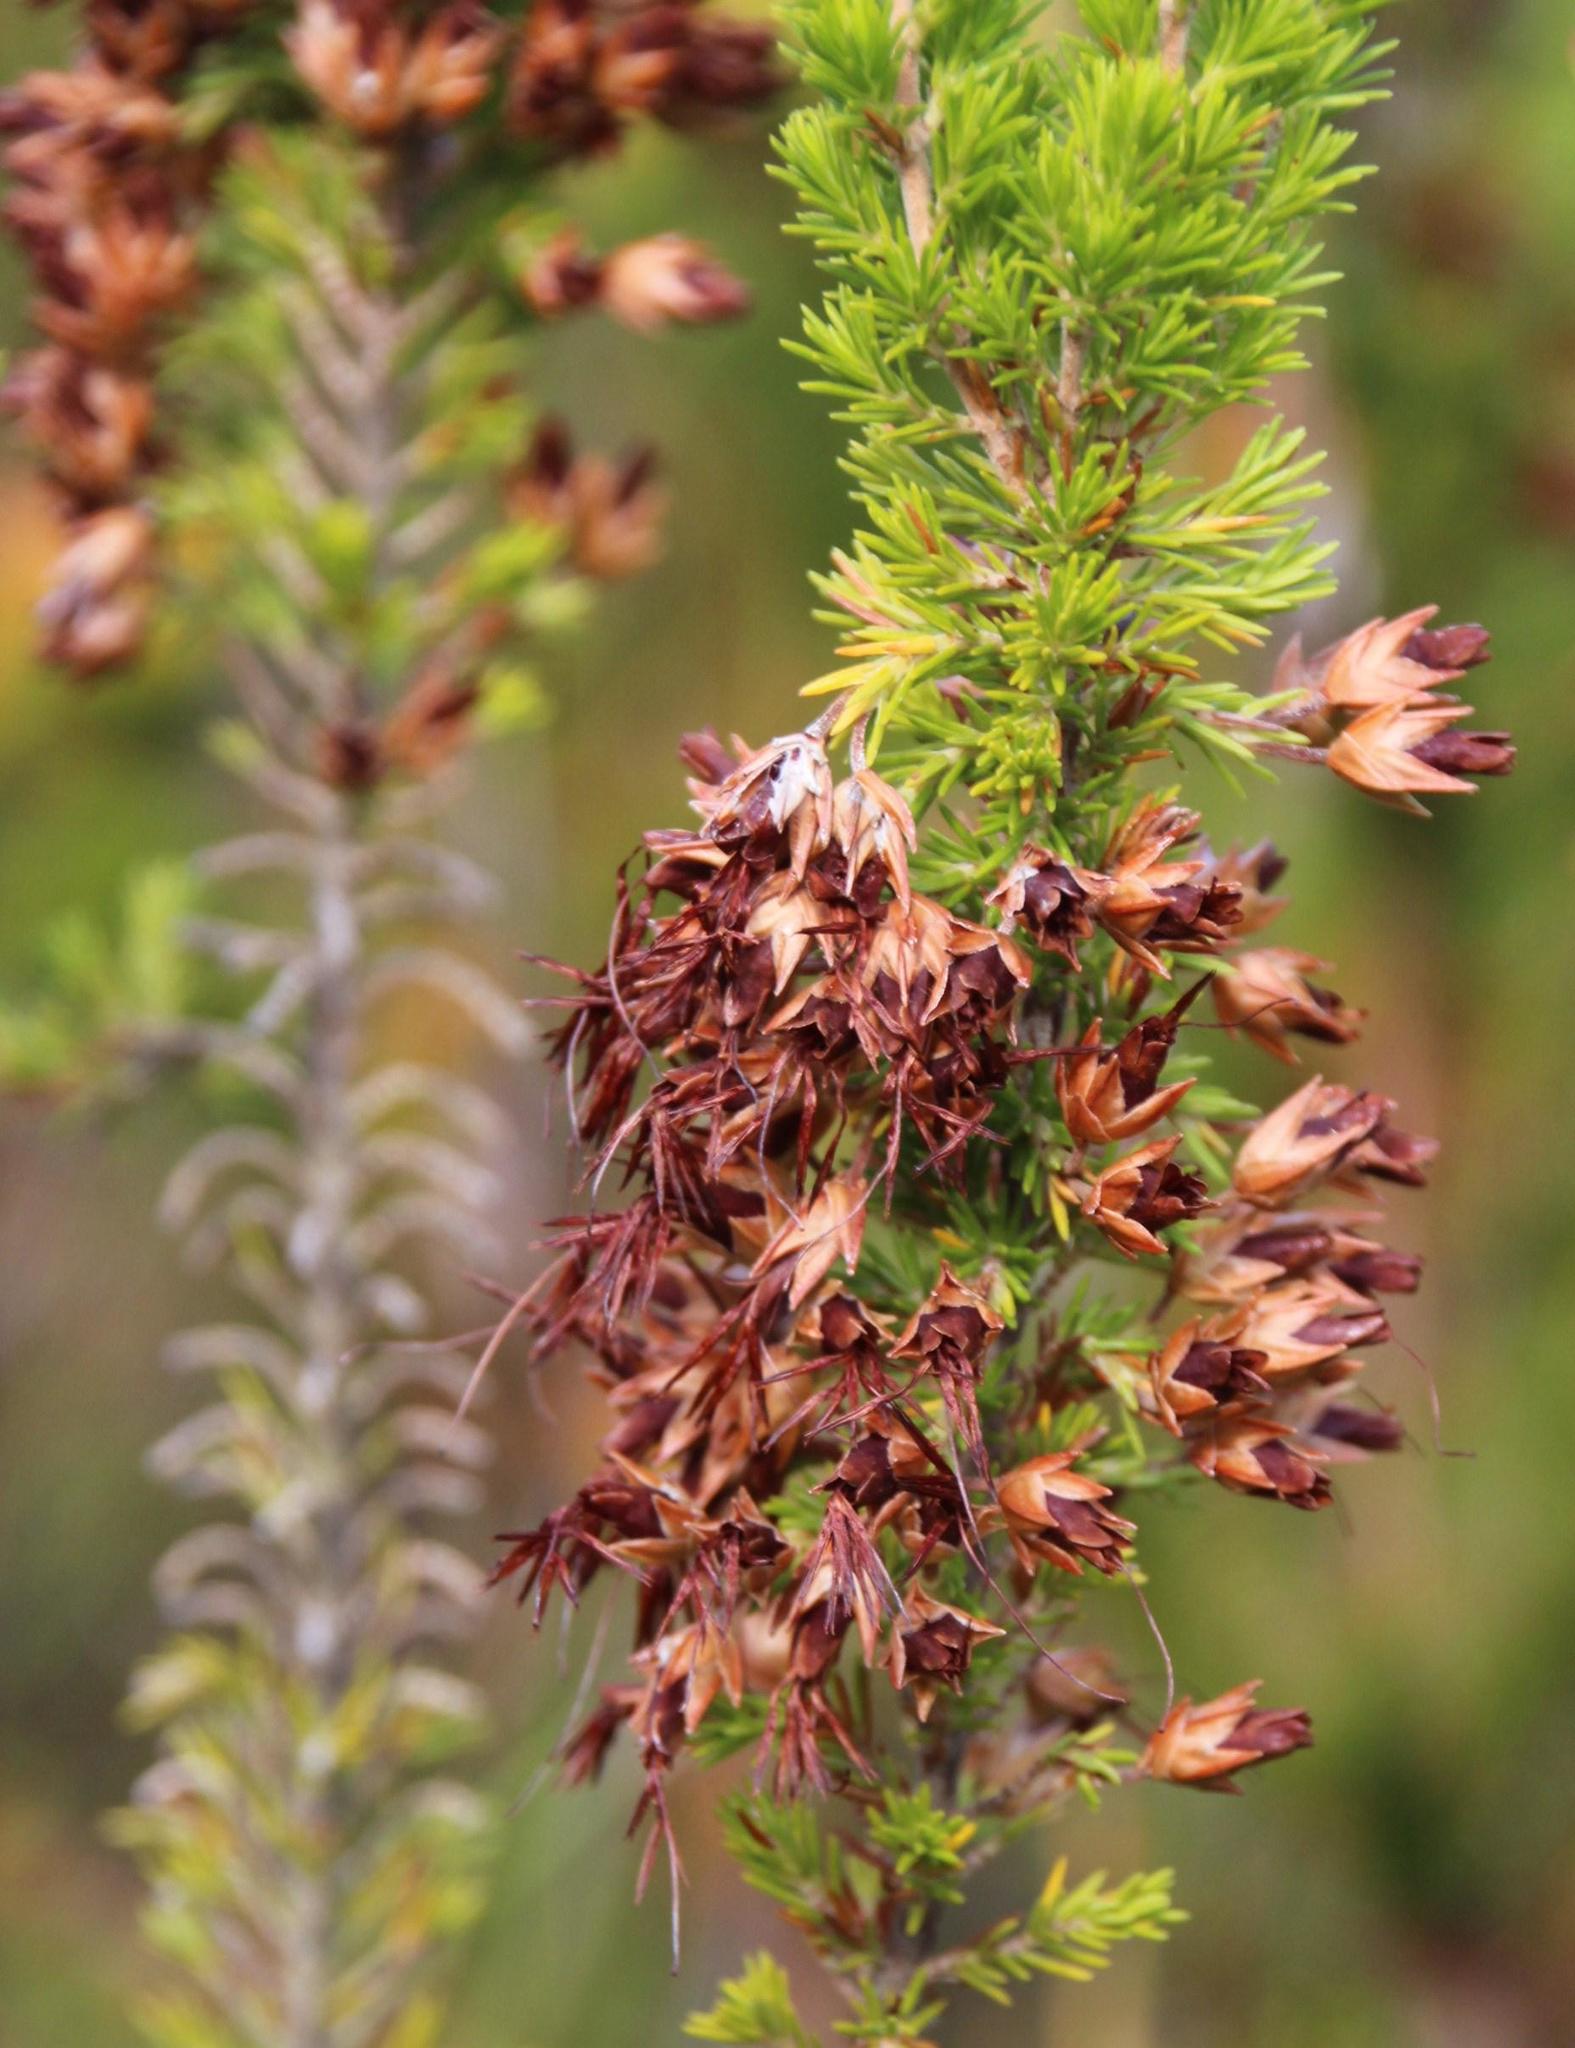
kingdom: Plantae
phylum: Tracheophyta
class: Magnoliopsida
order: Ericales
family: Ericaceae
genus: Erica
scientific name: Erica intermedia
